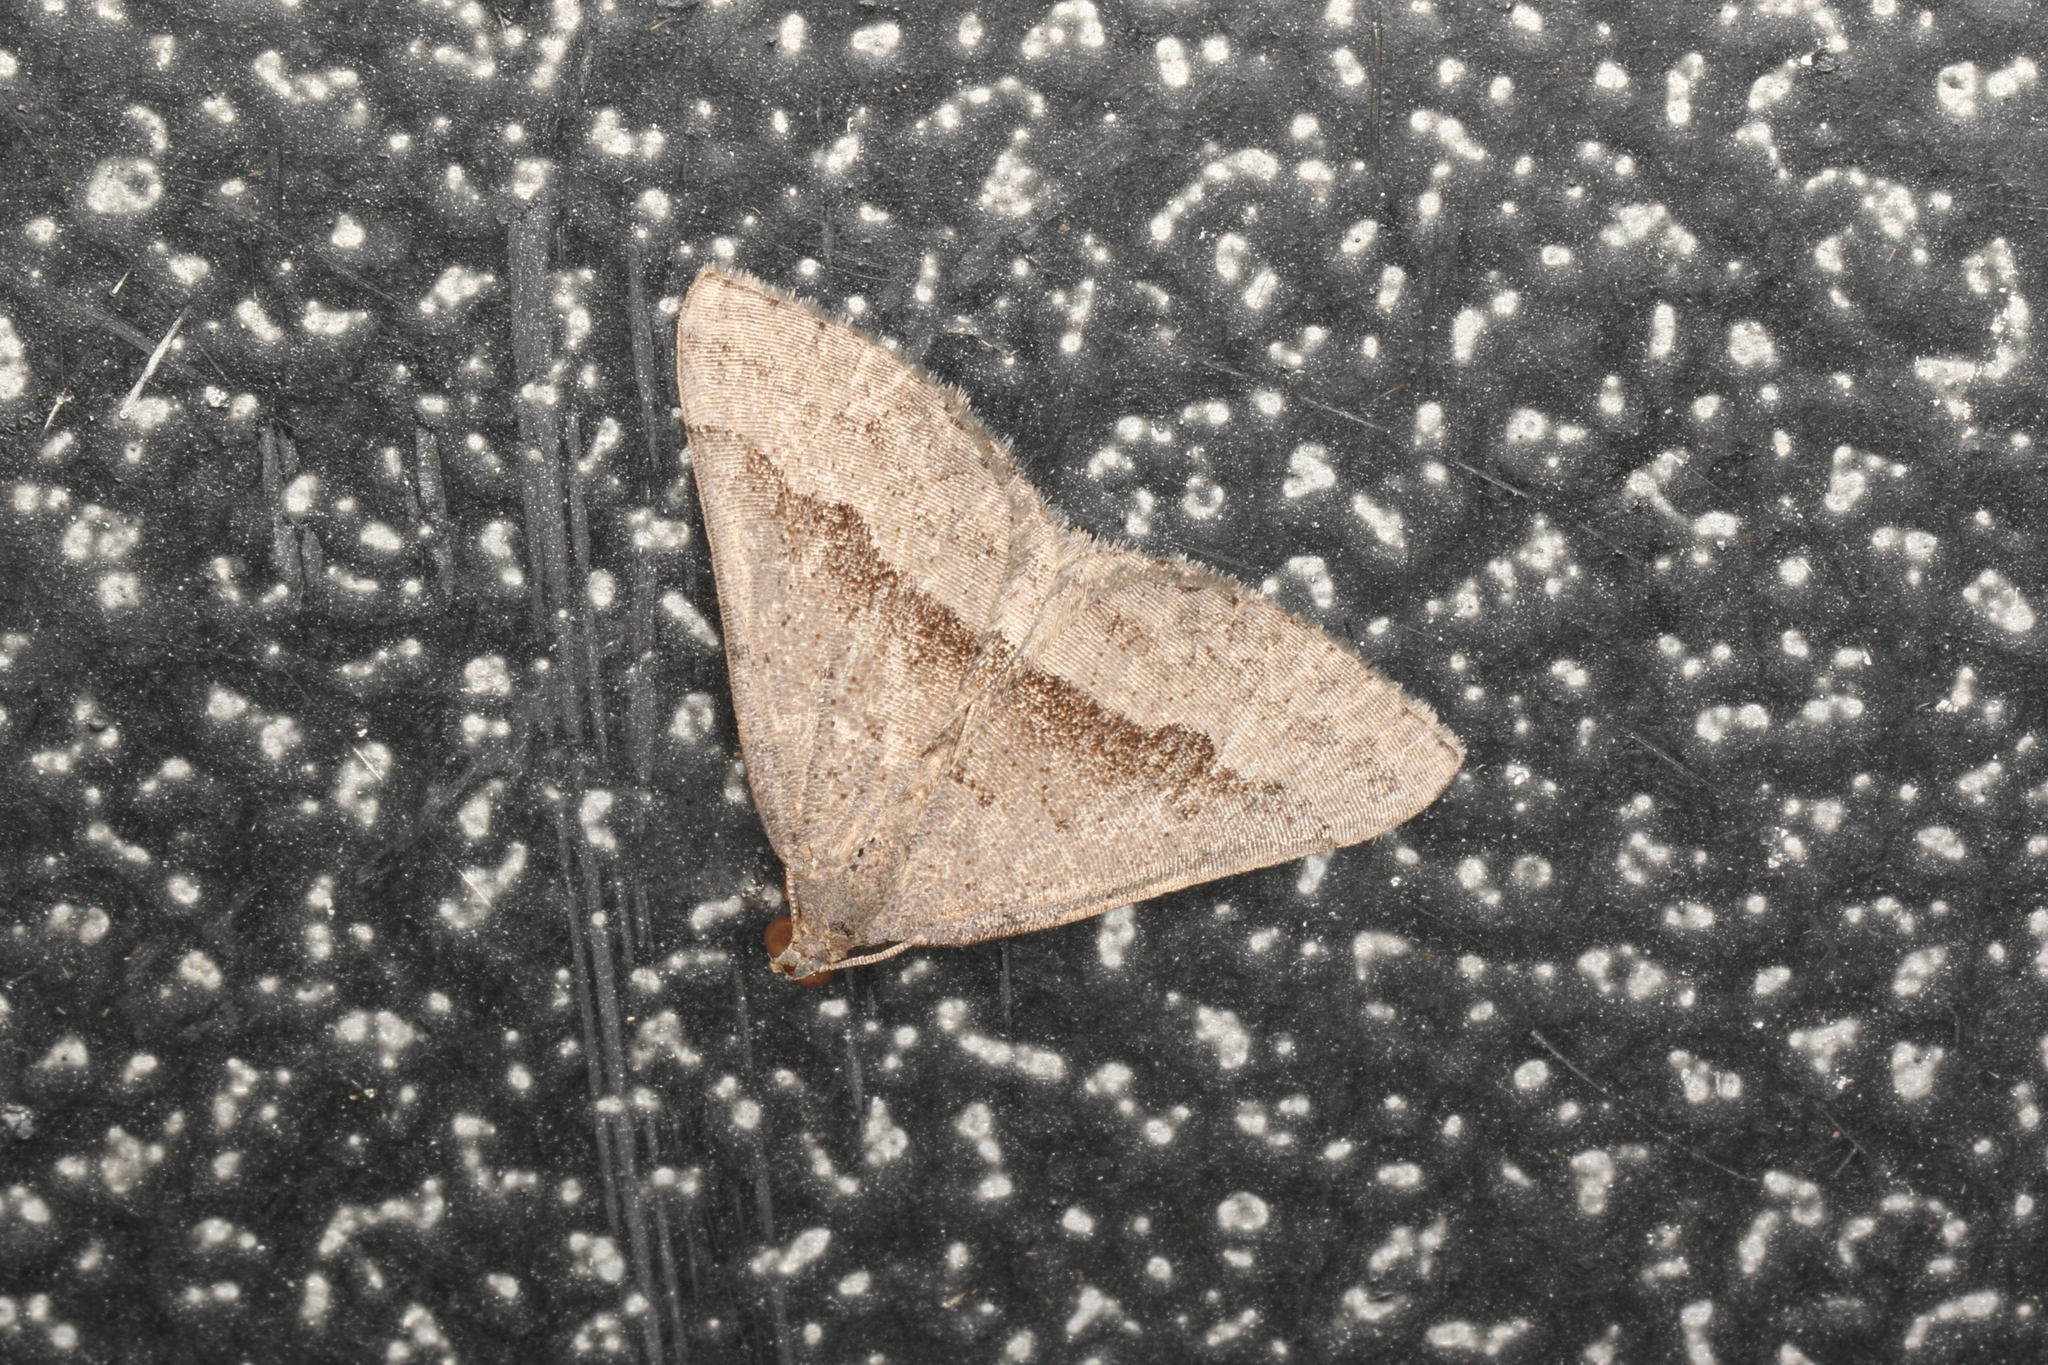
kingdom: Animalia
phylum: Arthropoda
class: Insecta
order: Lepidoptera
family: Geometridae
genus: Dichromodes
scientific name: Dichromodes ornata
